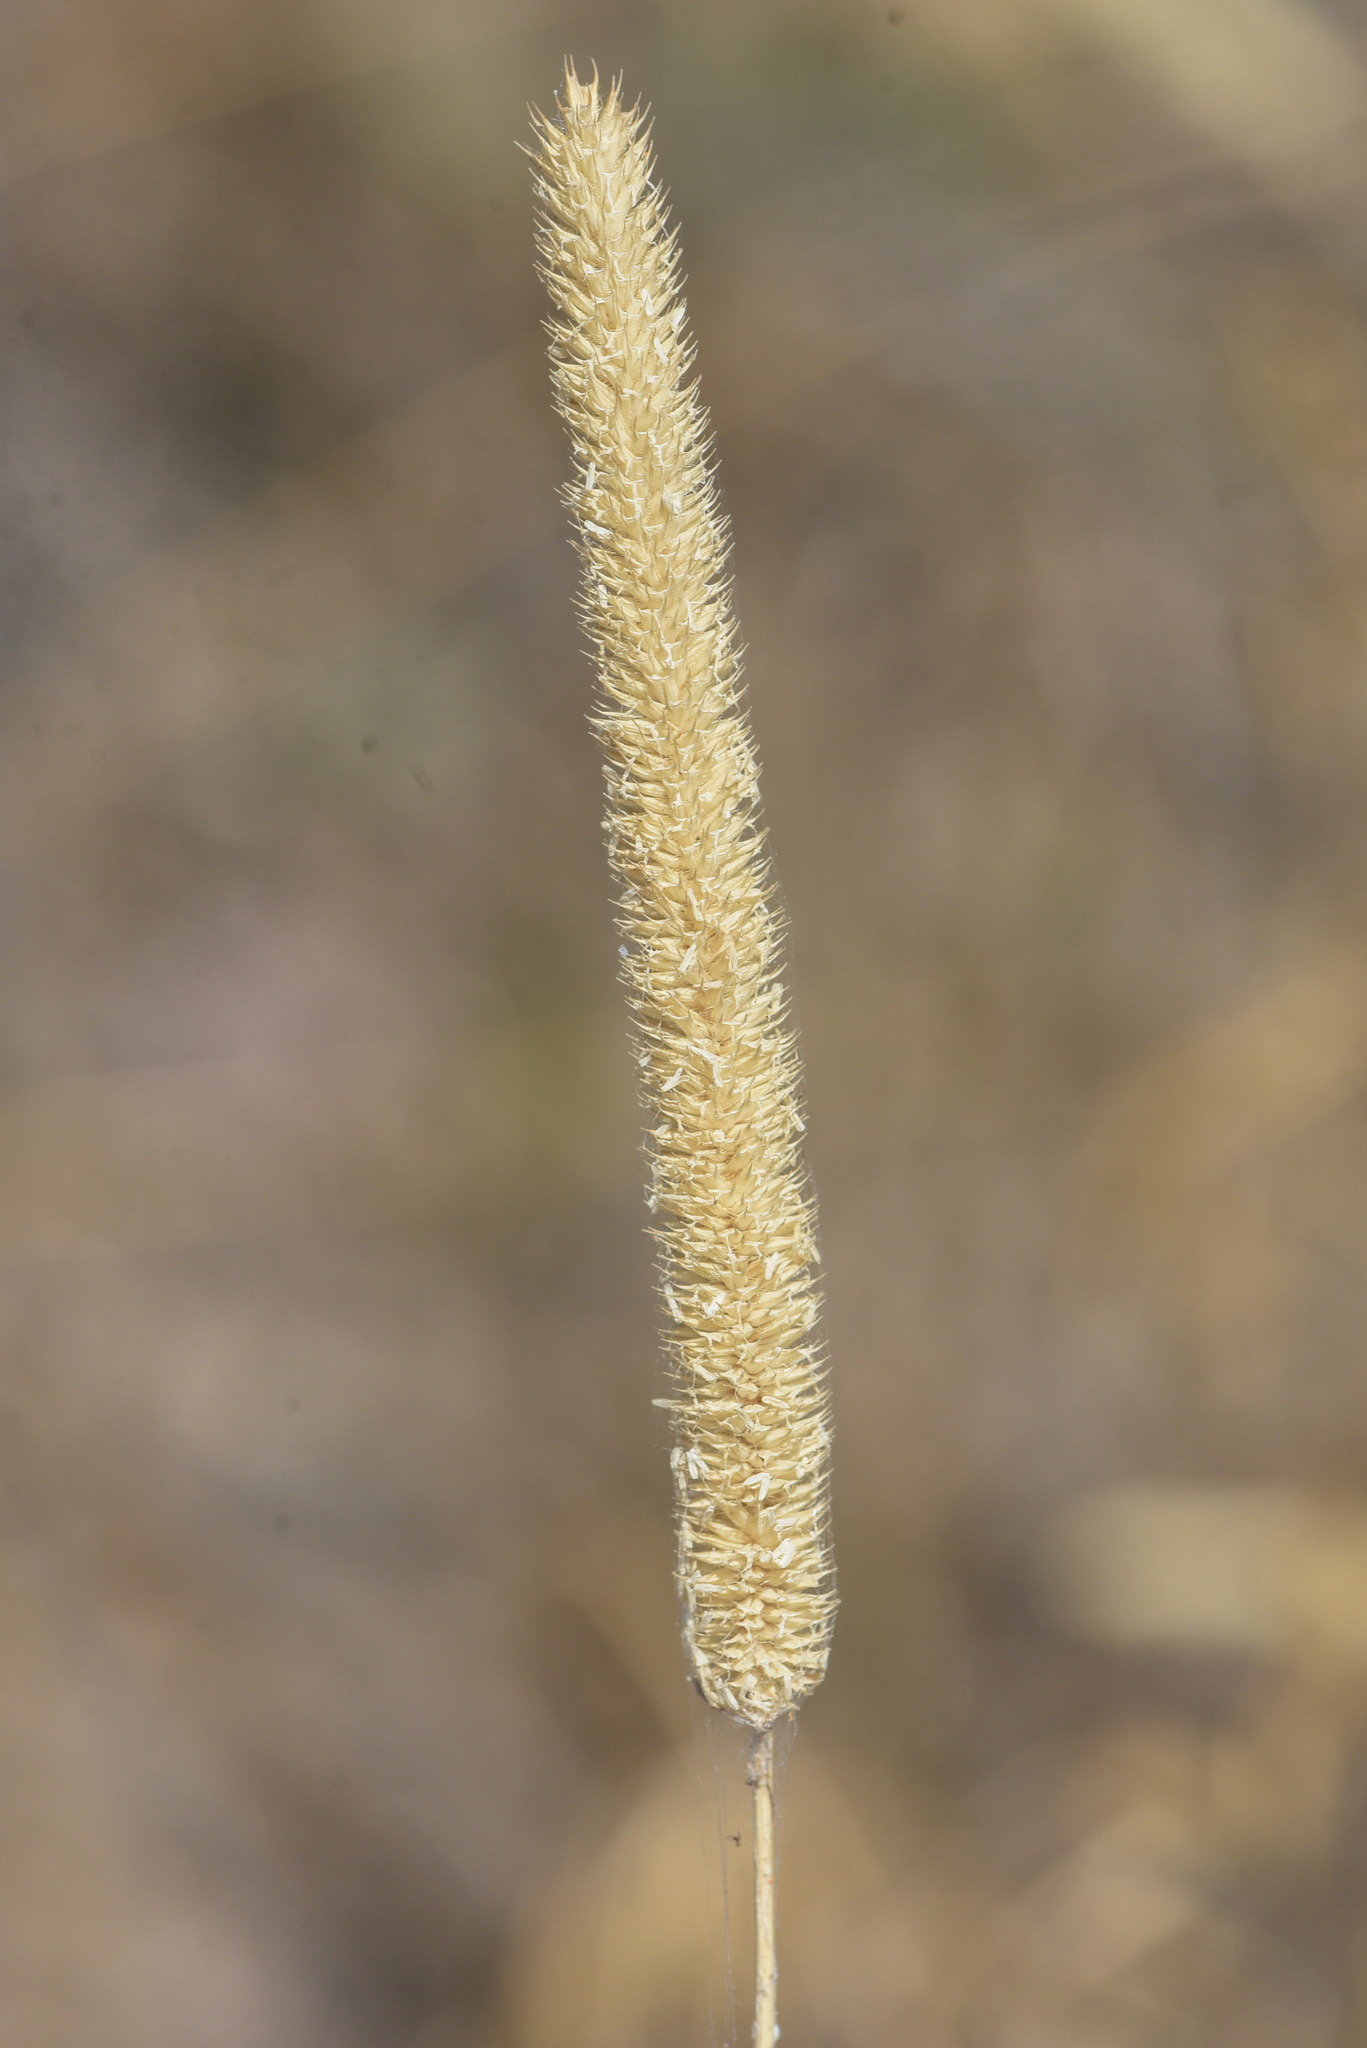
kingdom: Plantae
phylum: Tracheophyta
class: Liliopsida
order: Poales
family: Poaceae
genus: Phleum
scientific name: Phleum pratense
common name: Timothy grass
